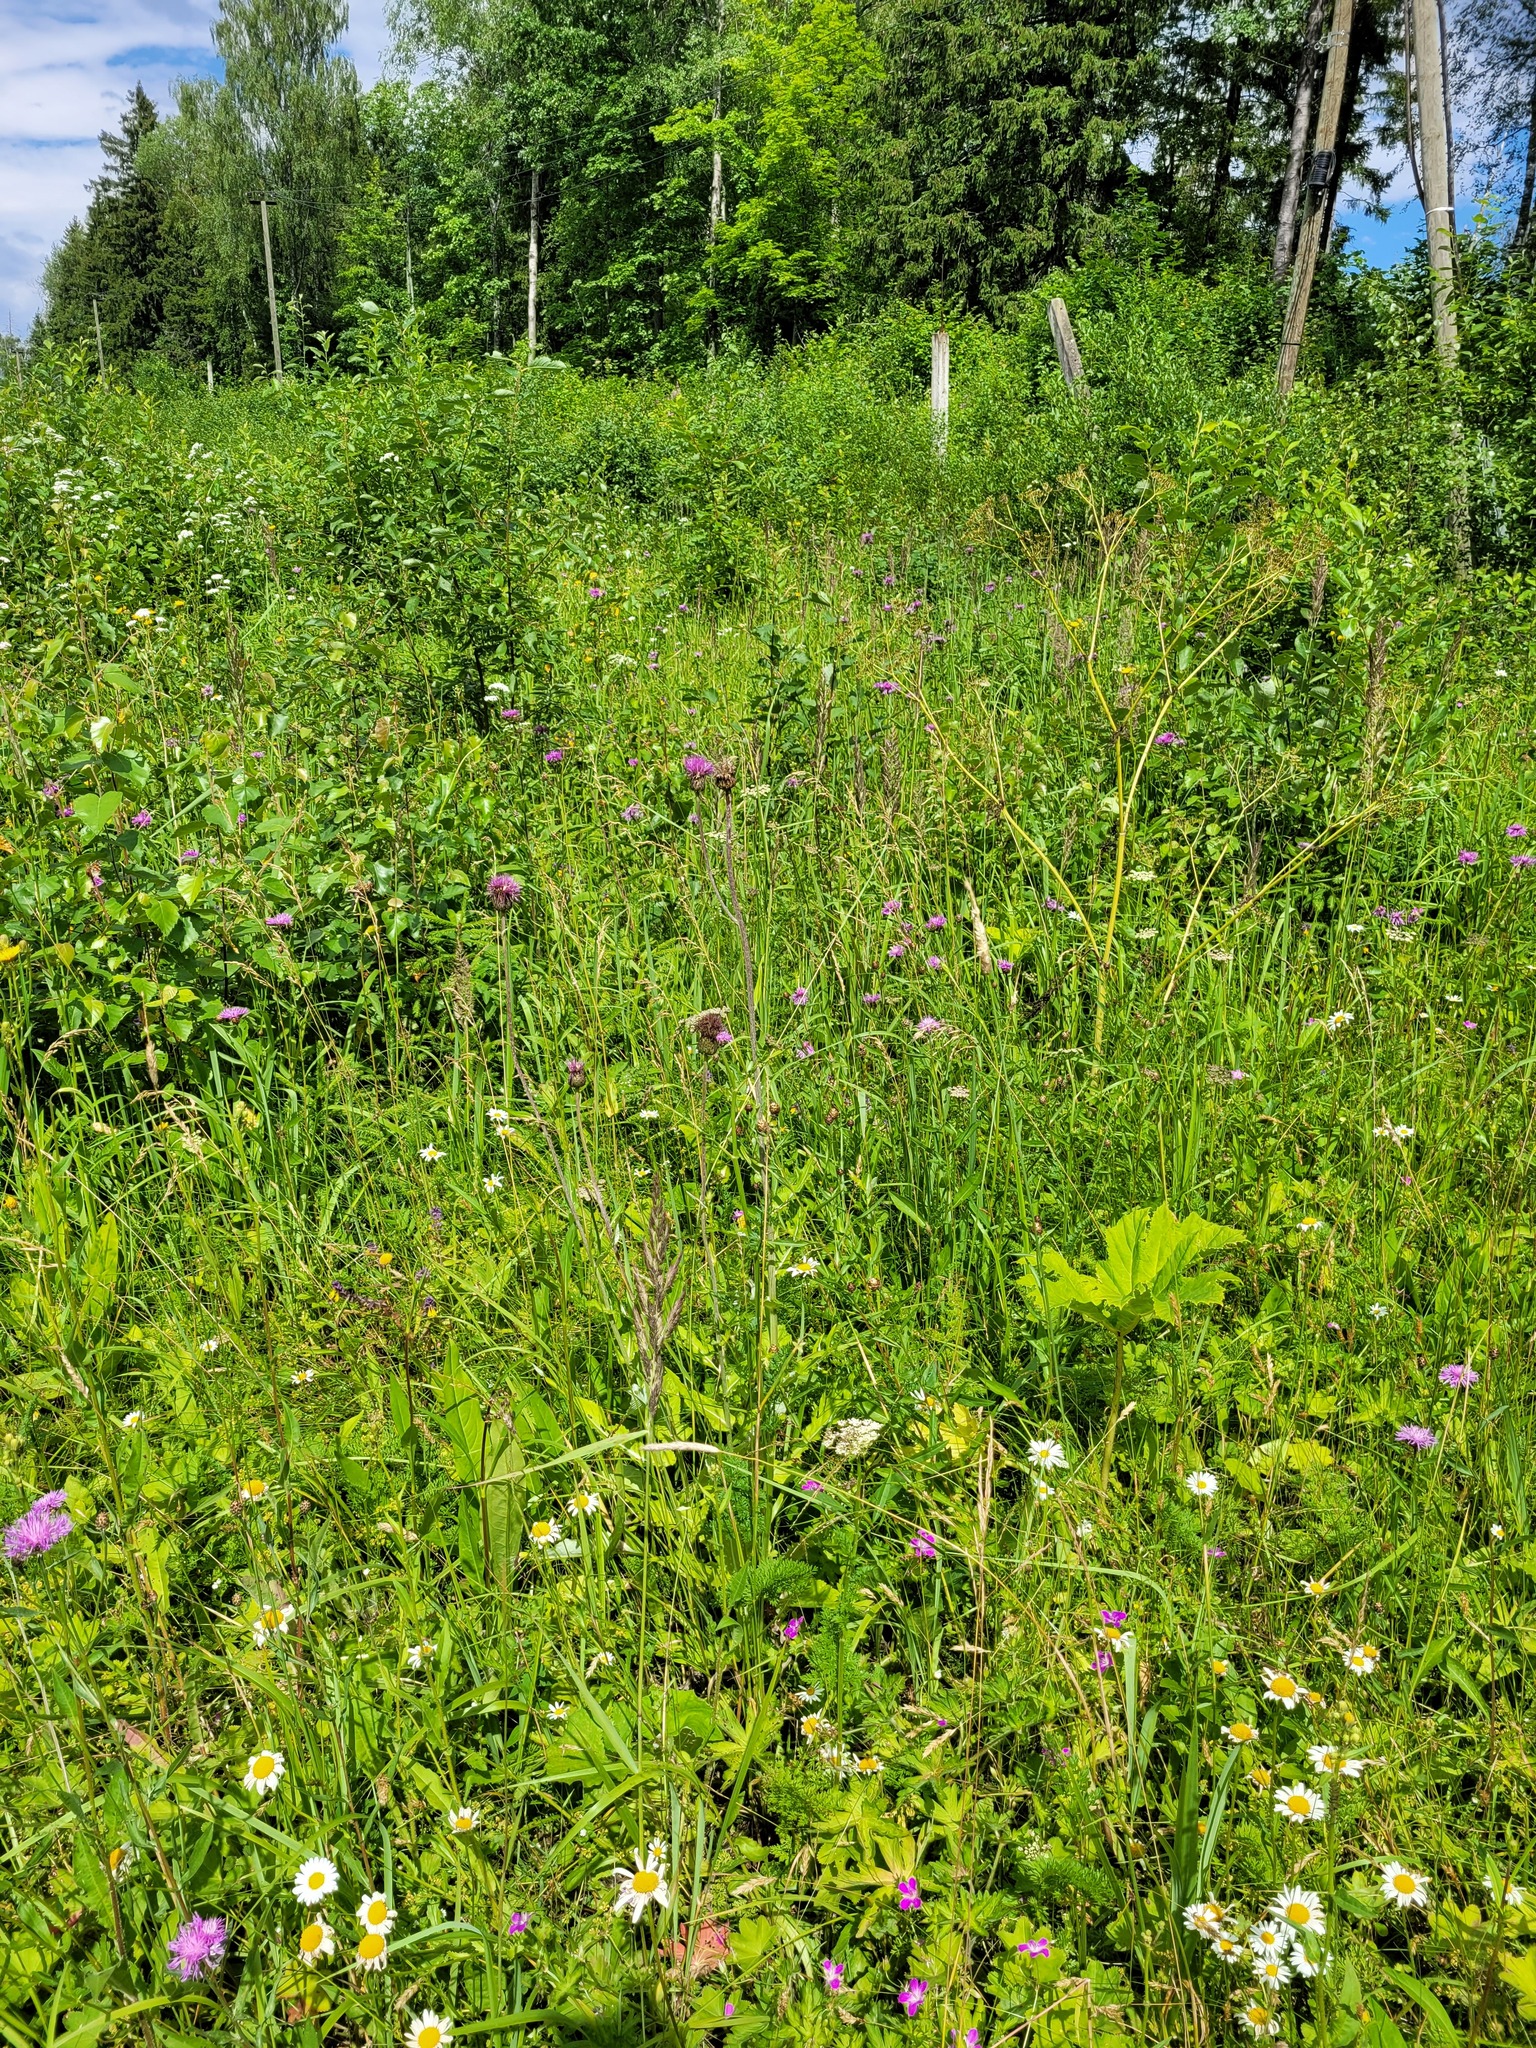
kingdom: Plantae
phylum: Tracheophyta
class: Magnoliopsida
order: Asterales
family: Asteraceae
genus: Cirsium
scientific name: Cirsium heterophyllum
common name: Melancholy thistle
